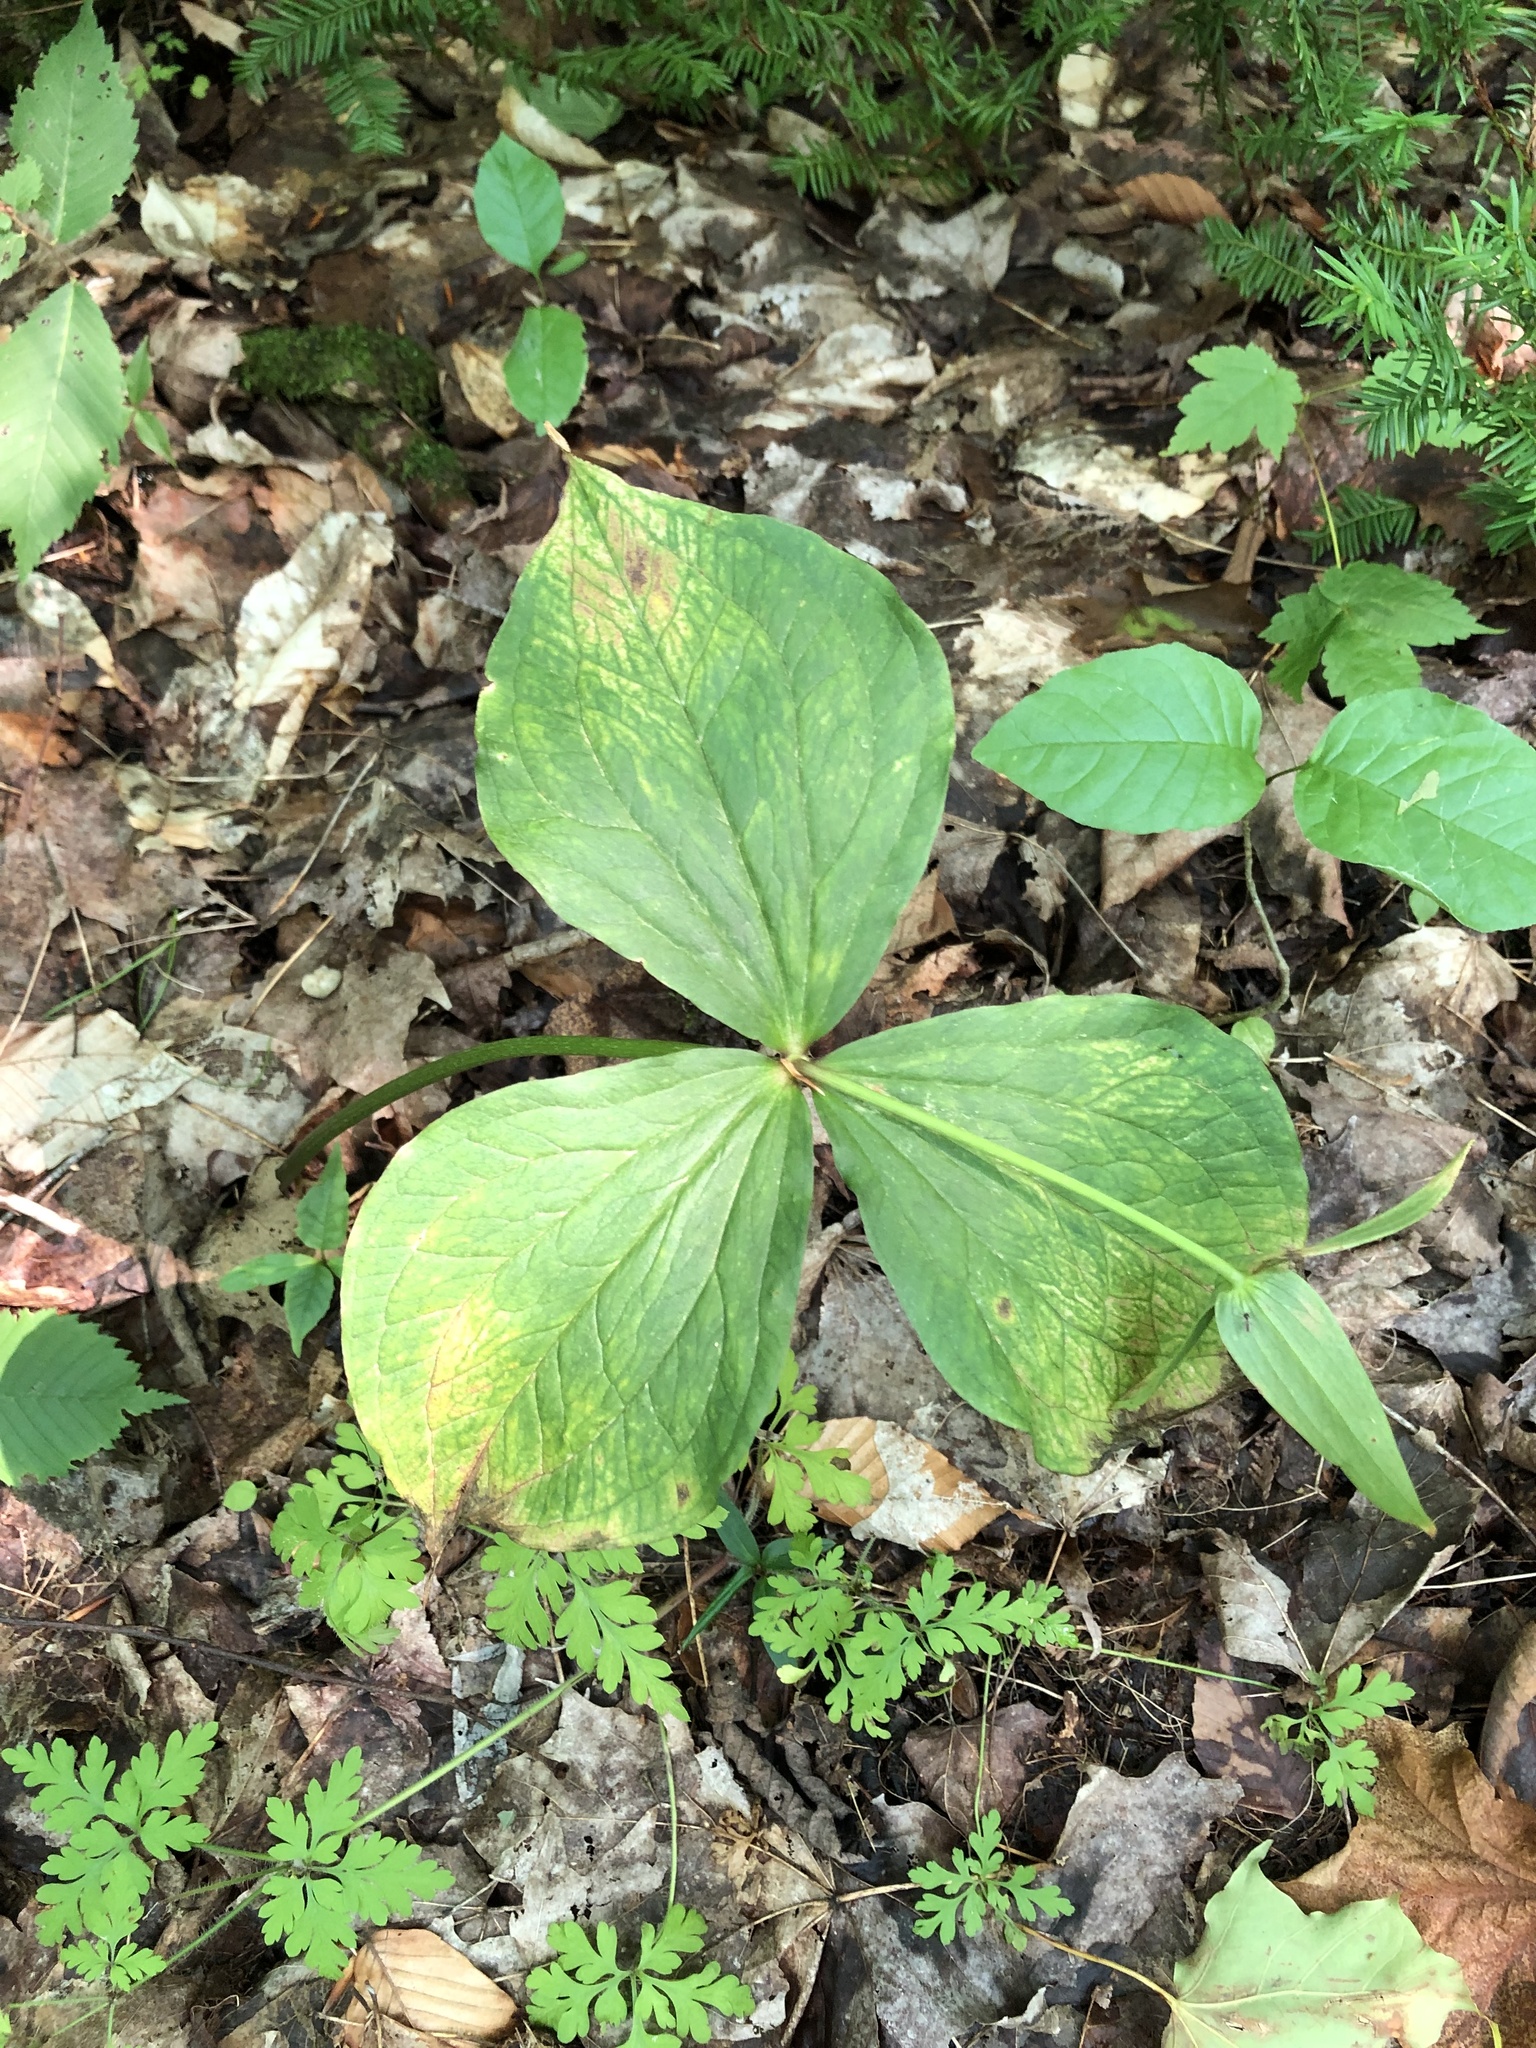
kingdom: Plantae
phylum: Tracheophyta
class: Liliopsida
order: Liliales
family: Melanthiaceae
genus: Trillium
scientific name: Trillium grandiflorum
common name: Great white trillium
